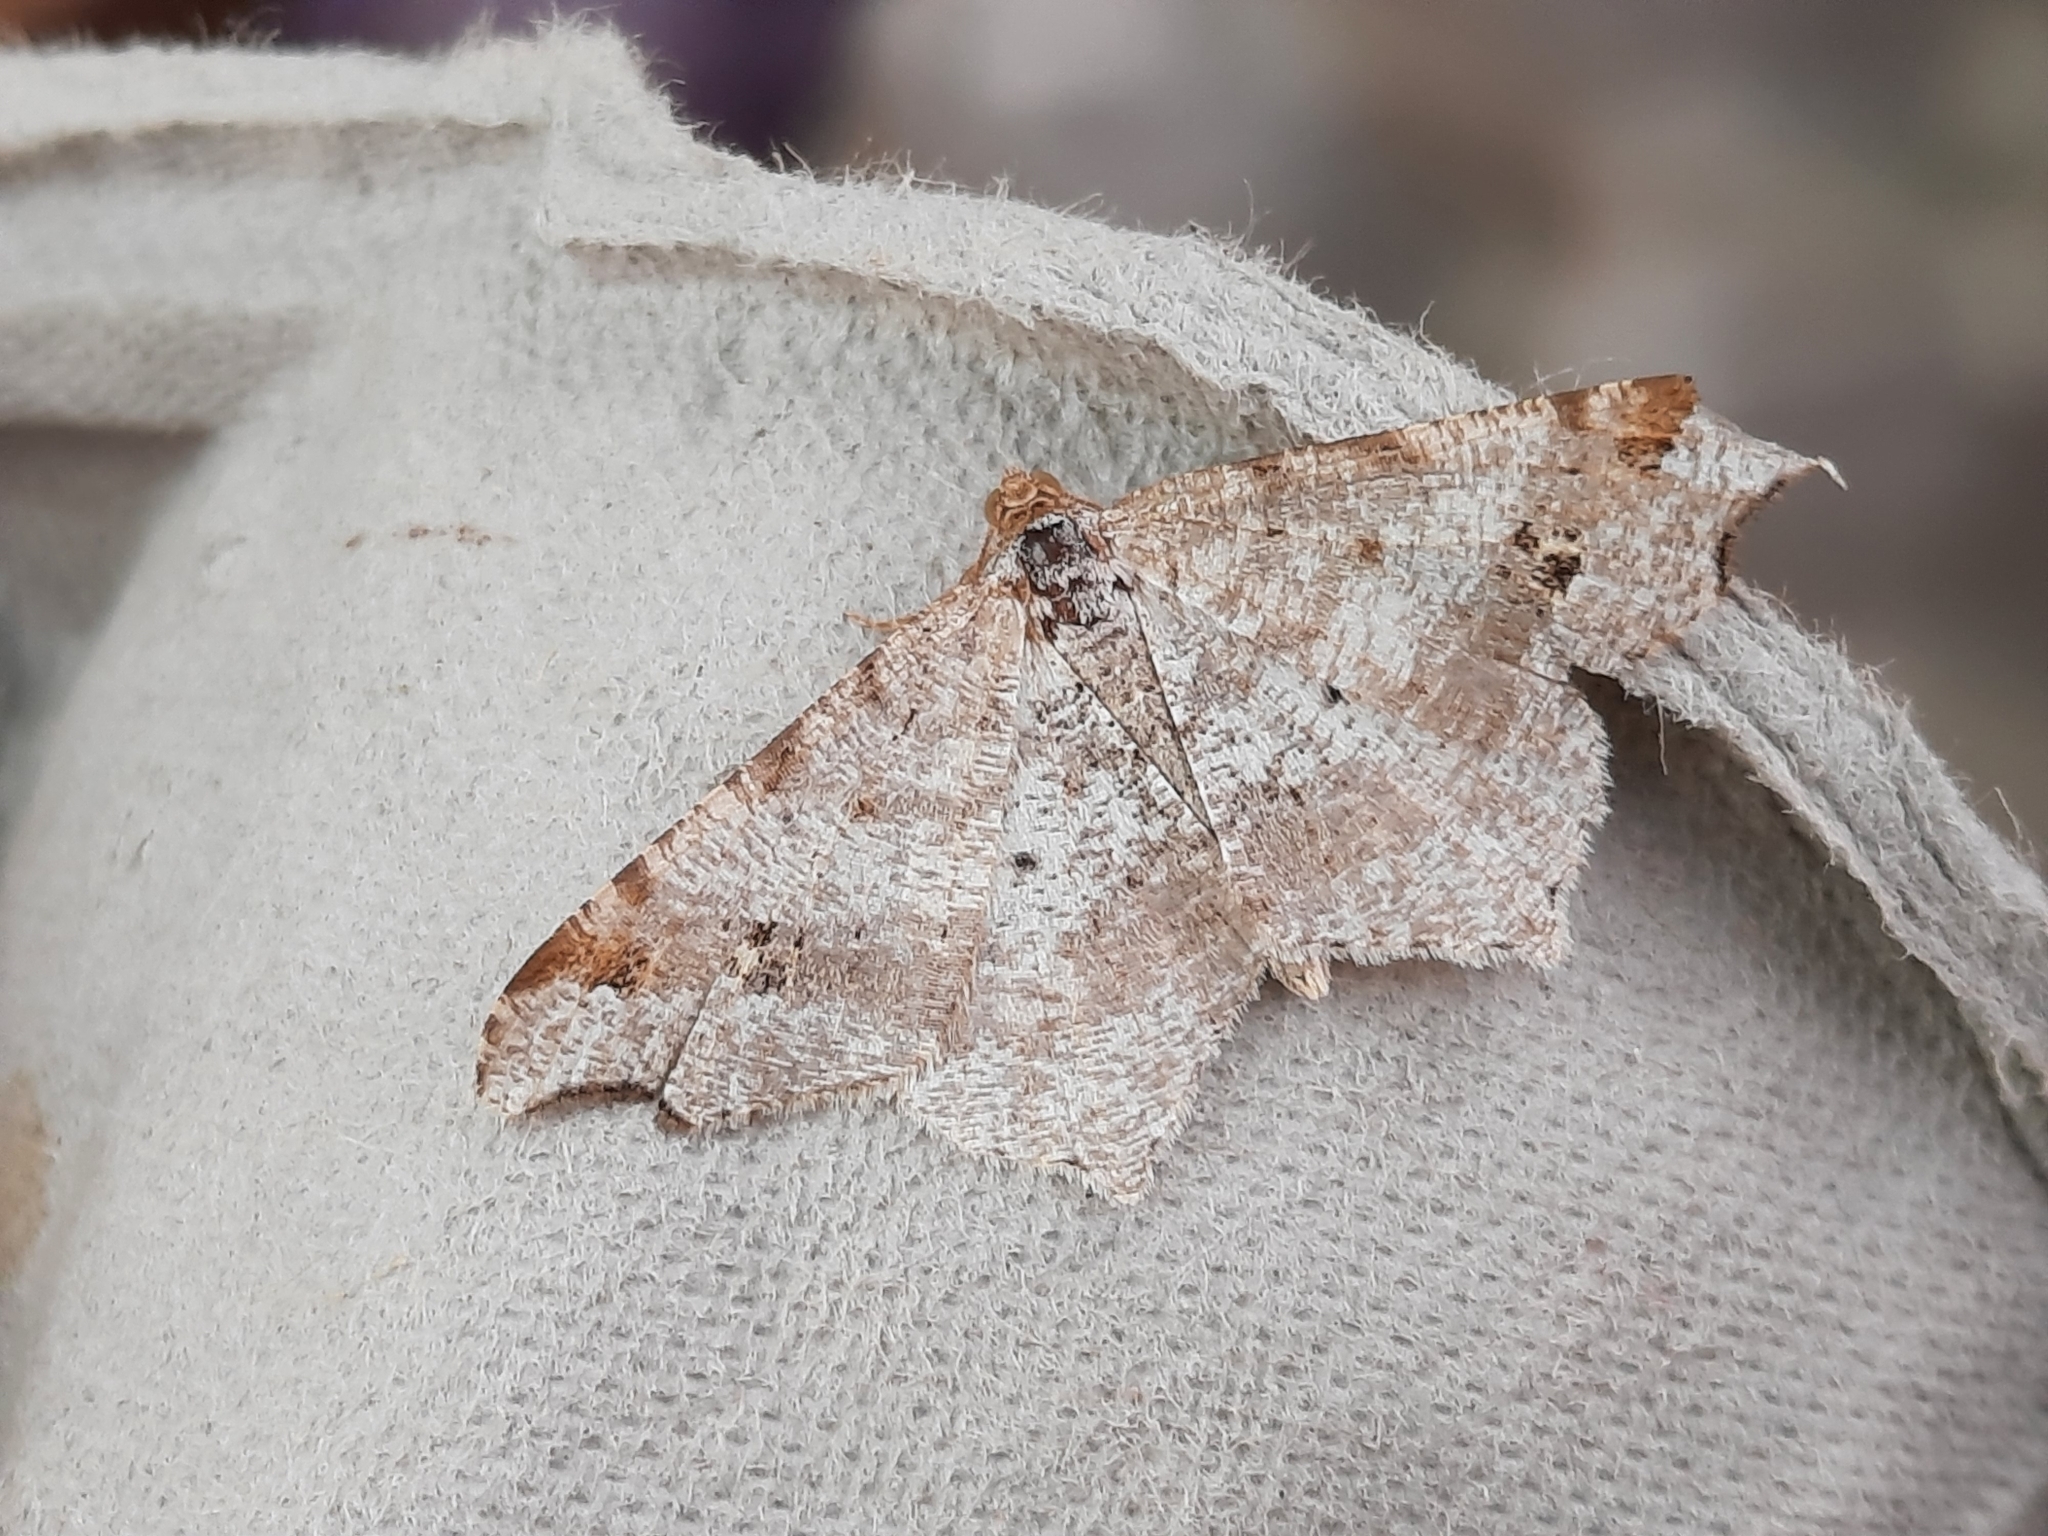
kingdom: Animalia
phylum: Arthropoda
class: Insecta
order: Lepidoptera
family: Geometridae
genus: Macaria
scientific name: Macaria alternata
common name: Sharp-angled peacock
